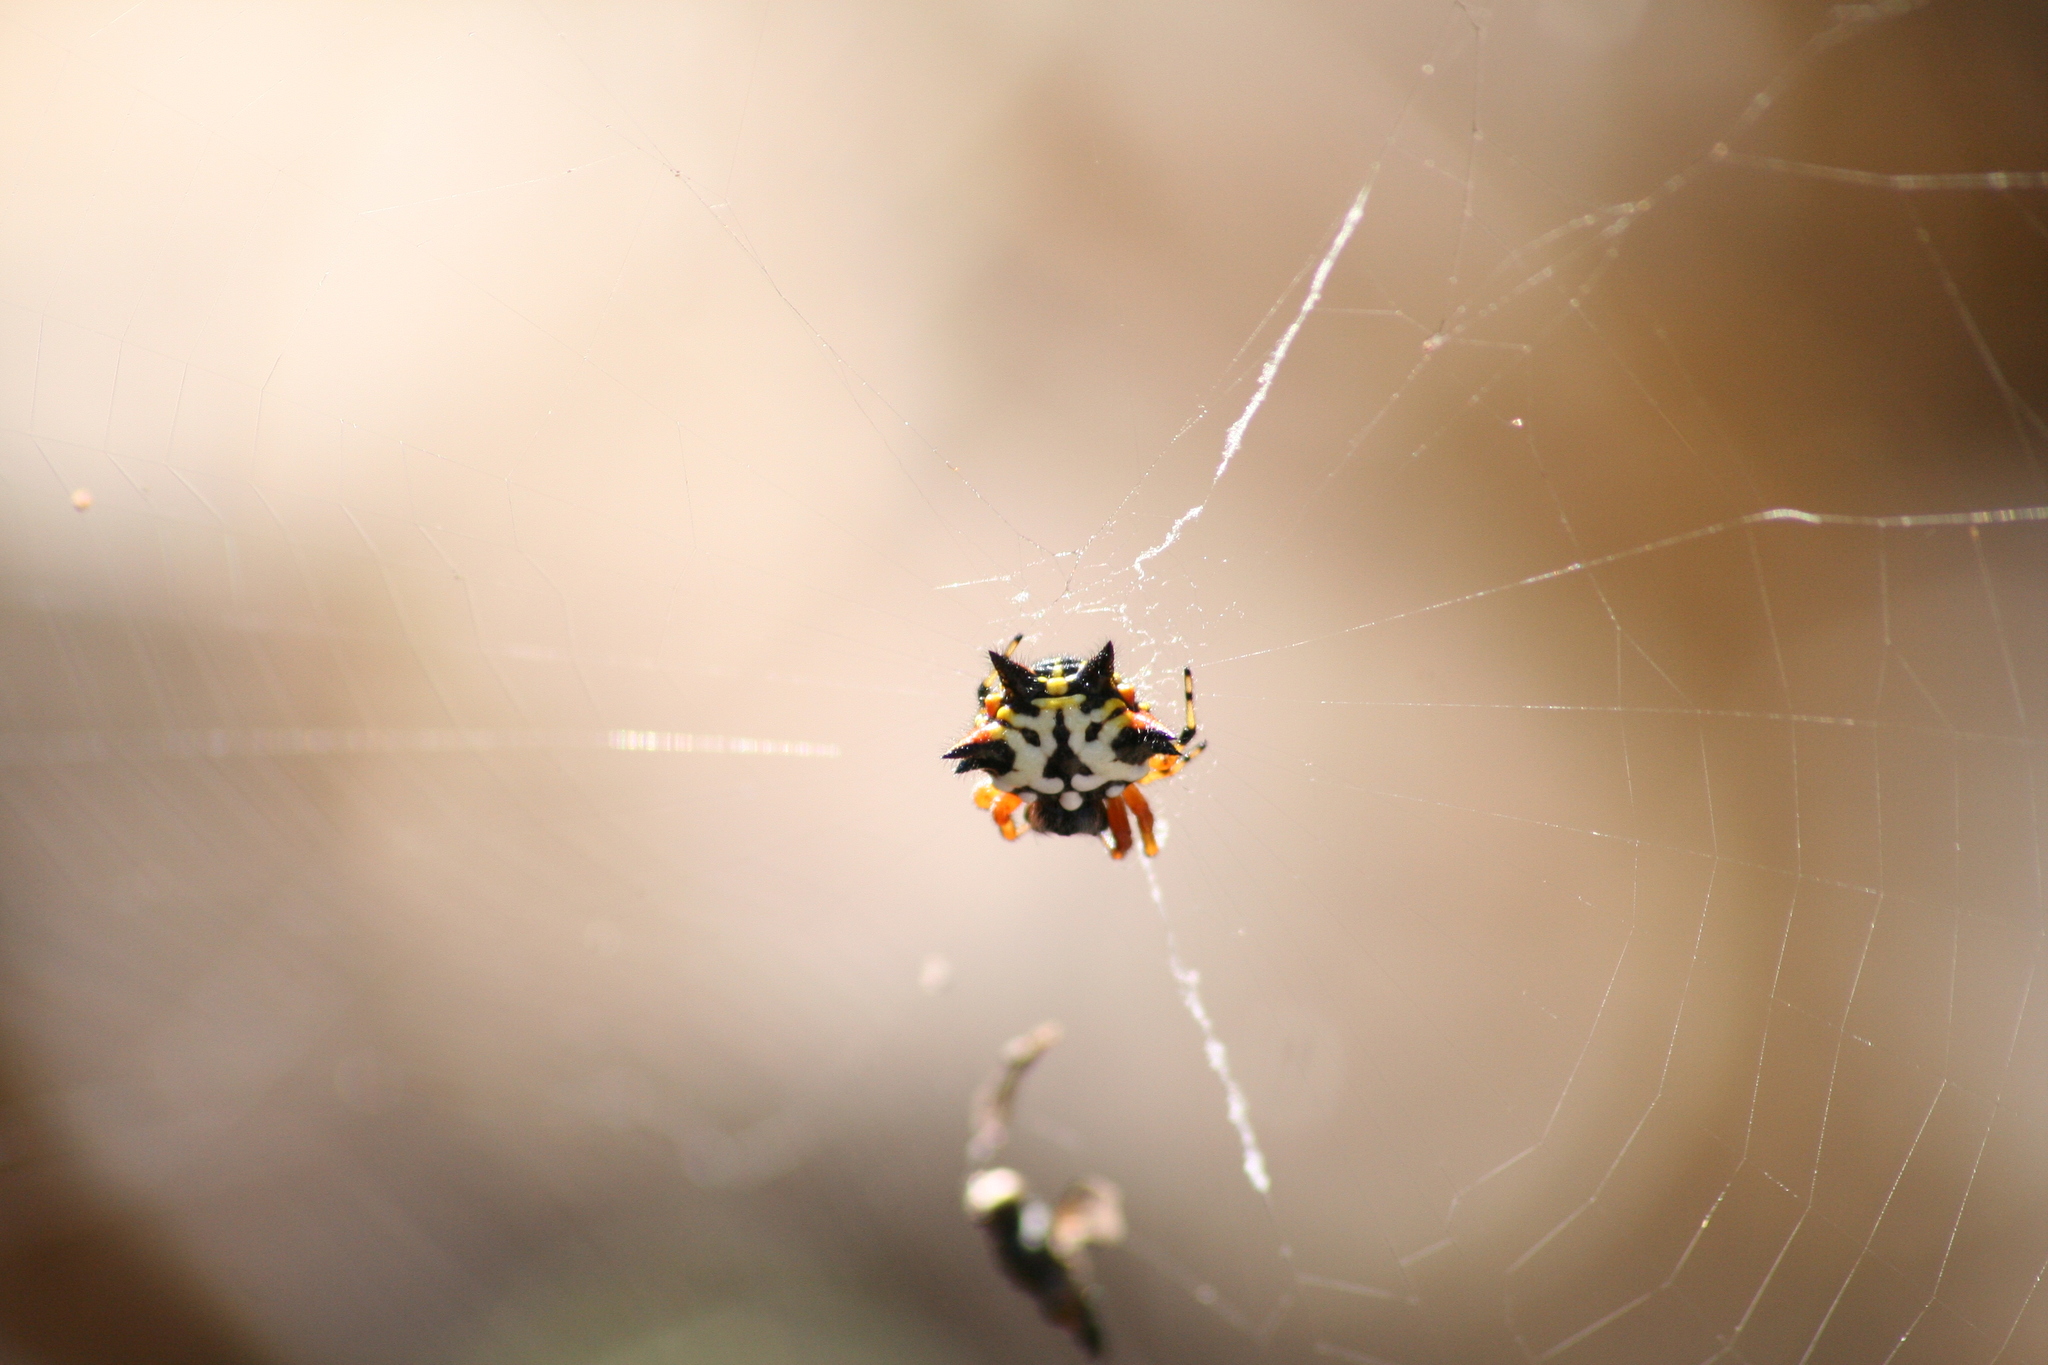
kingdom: Animalia
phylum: Arthropoda
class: Arachnida
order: Araneae
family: Araneidae
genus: Austracantha
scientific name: Austracantha minax
